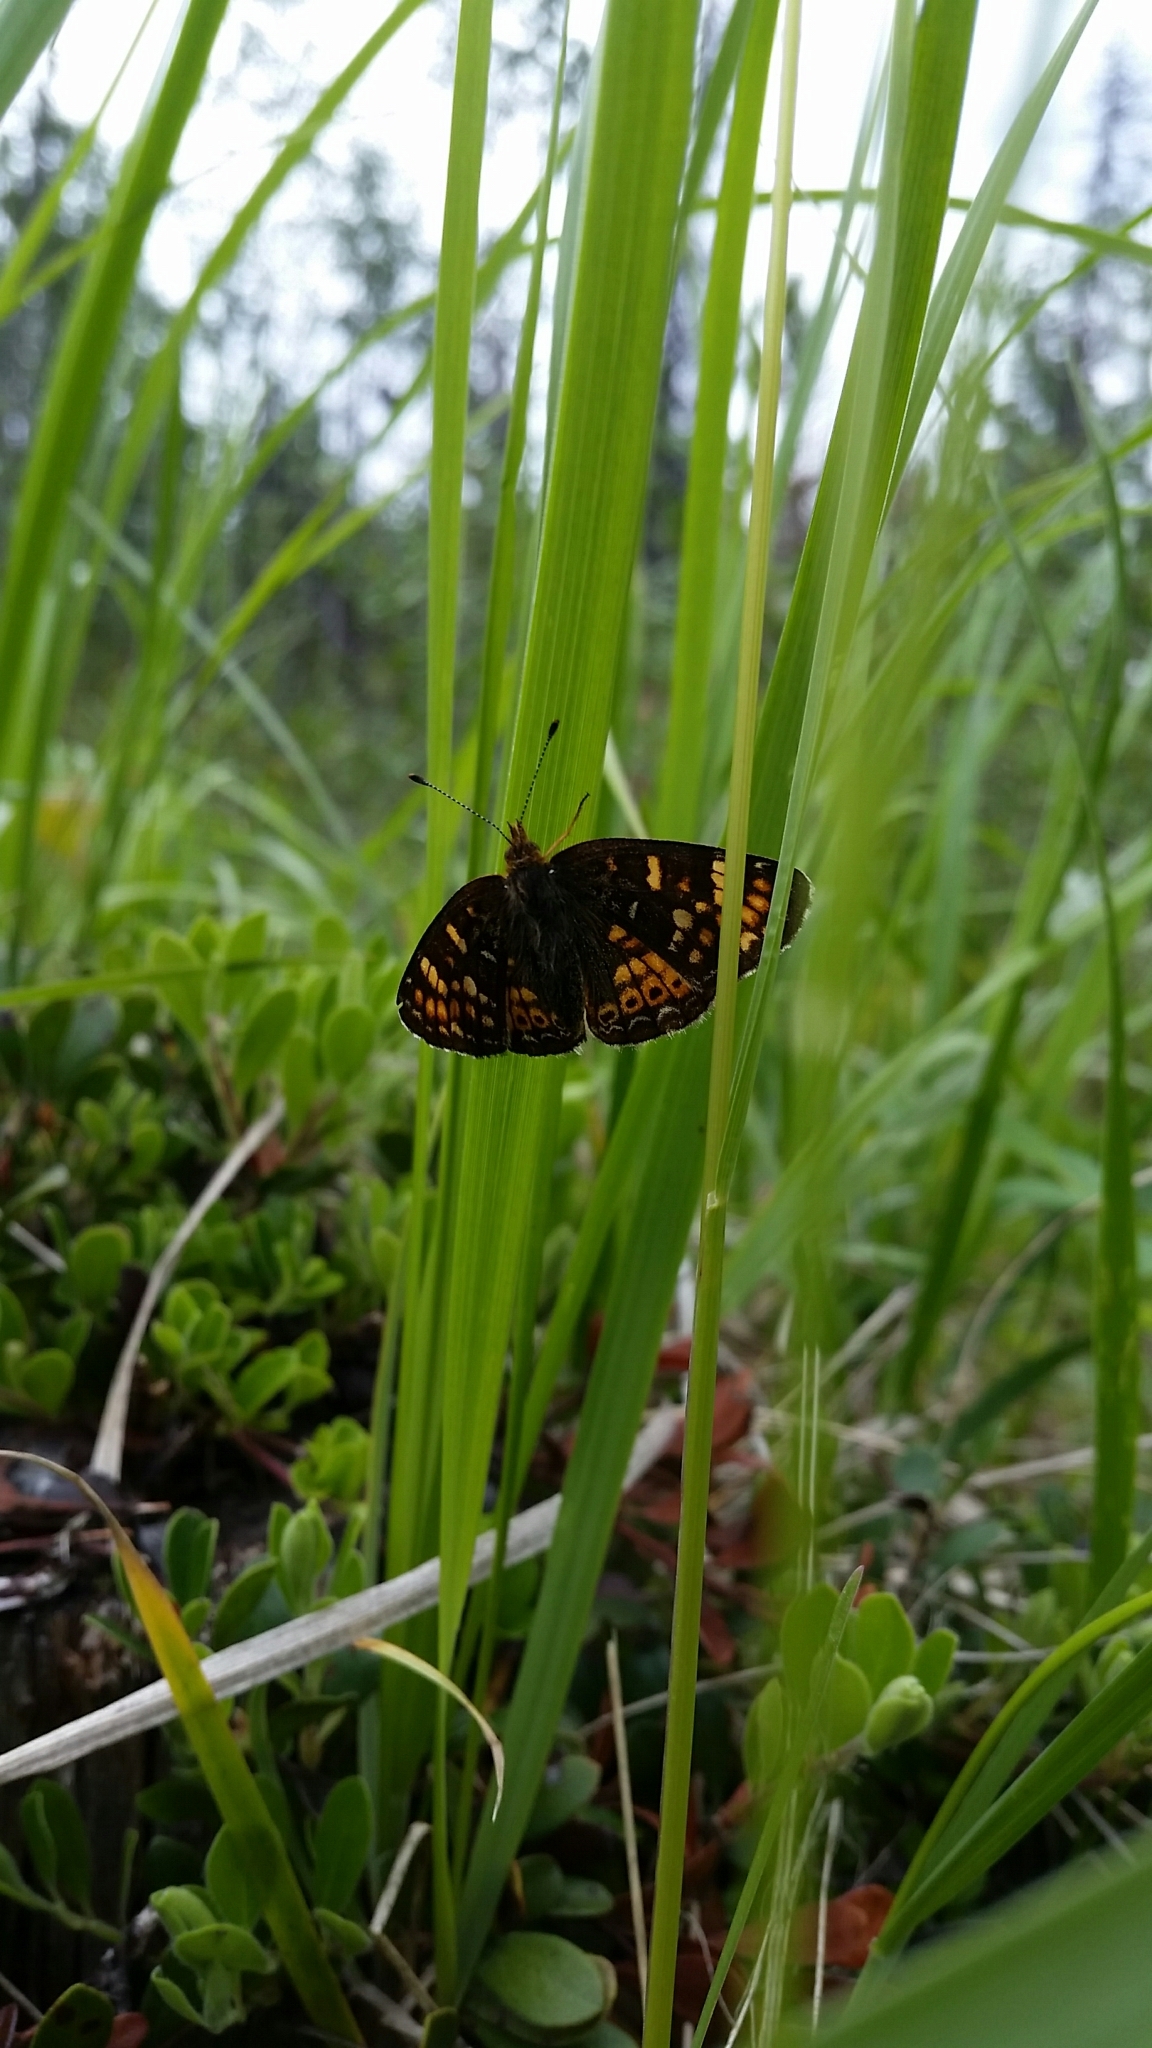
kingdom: Animalia
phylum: Arthropoda
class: Insecta
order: Lepidoptera
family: Nymphalidae
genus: Phyciodes
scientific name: Phyciodes tharos
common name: Pearl crescent
